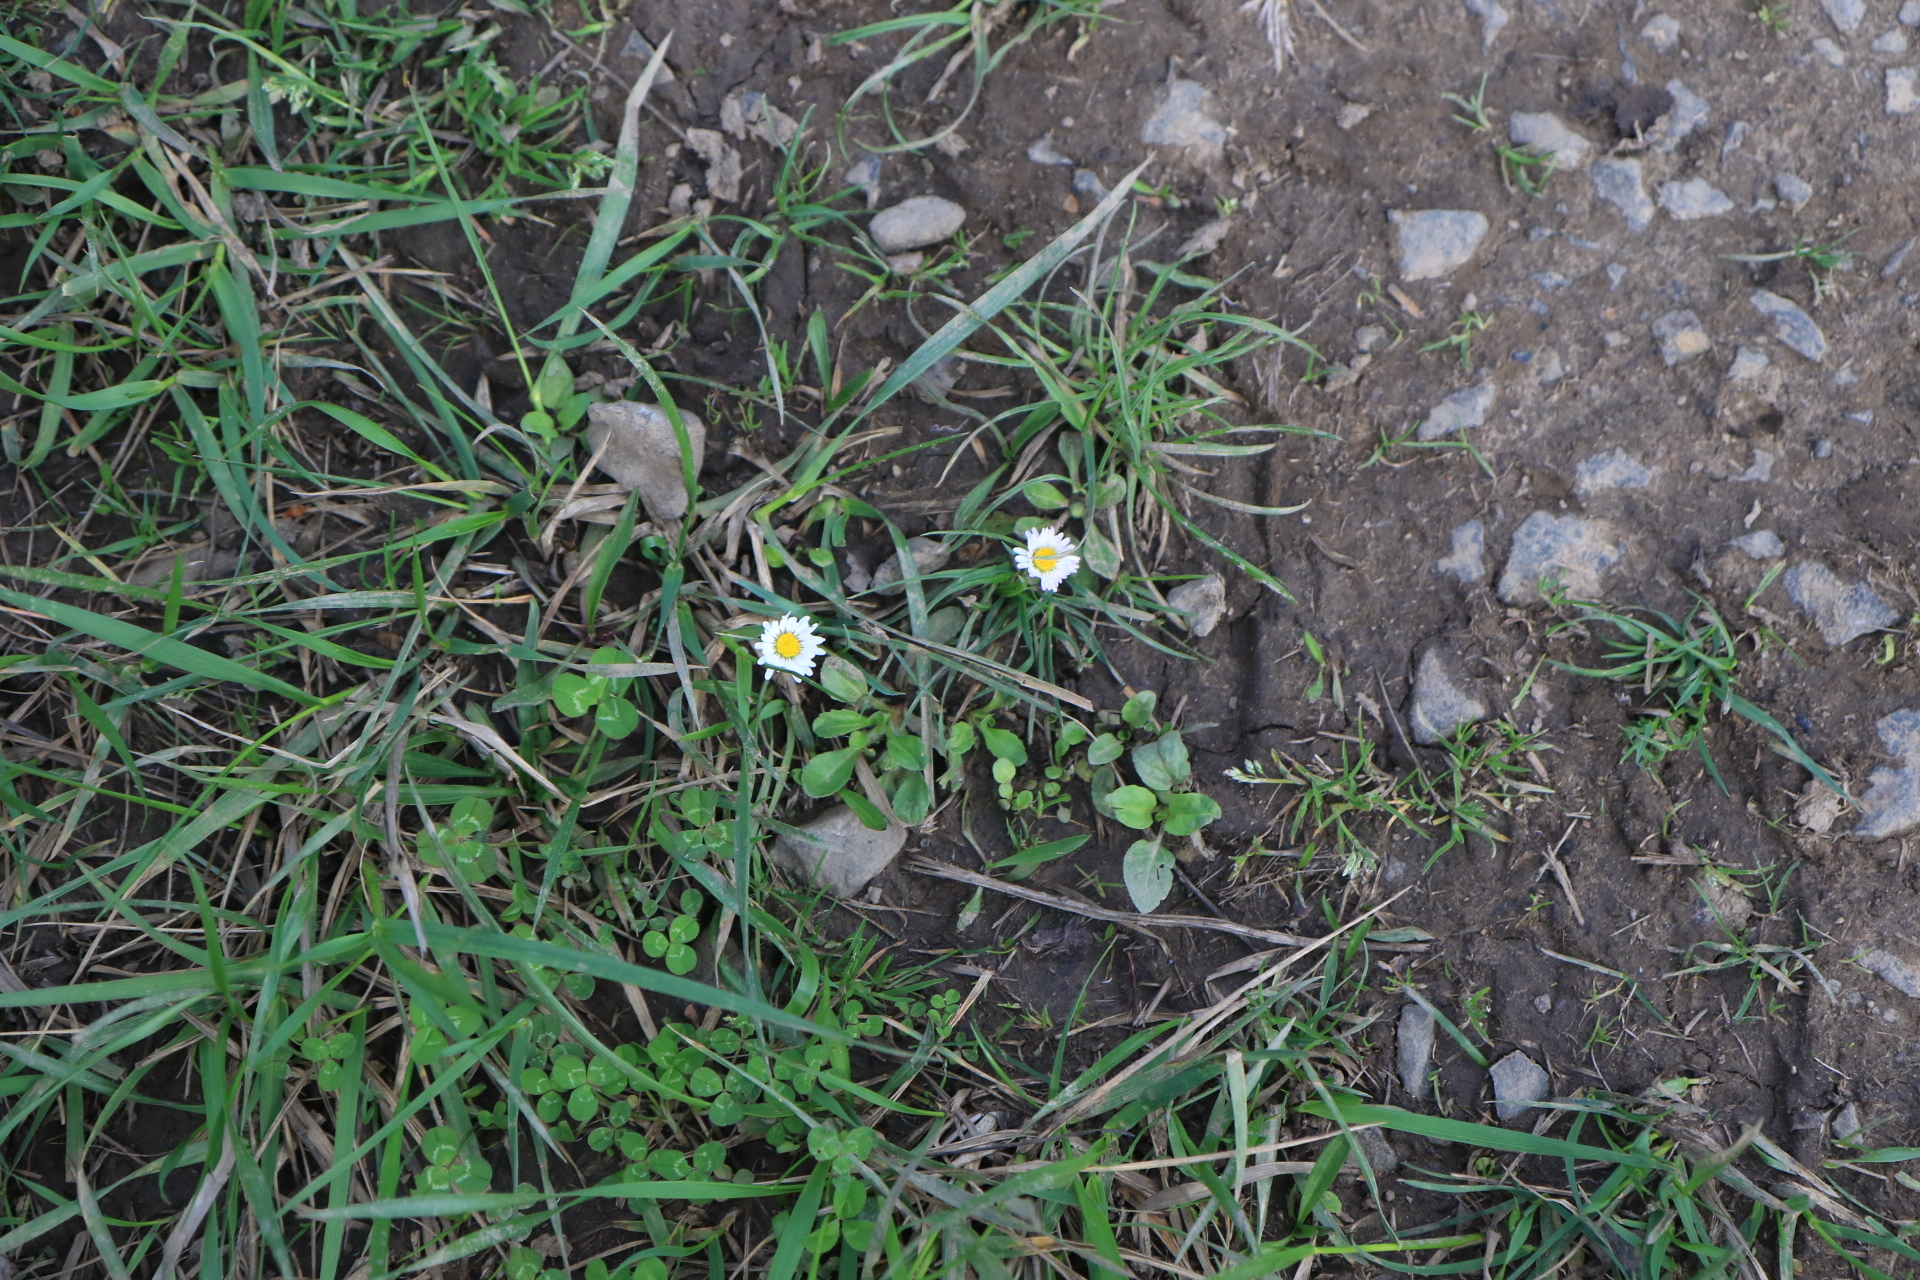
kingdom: Plantae
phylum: Tracheophyta
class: Magnoliopsida
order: Asterales
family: Asteraceae
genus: Bellis
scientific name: Bellis perennis
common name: Lawndaisy
